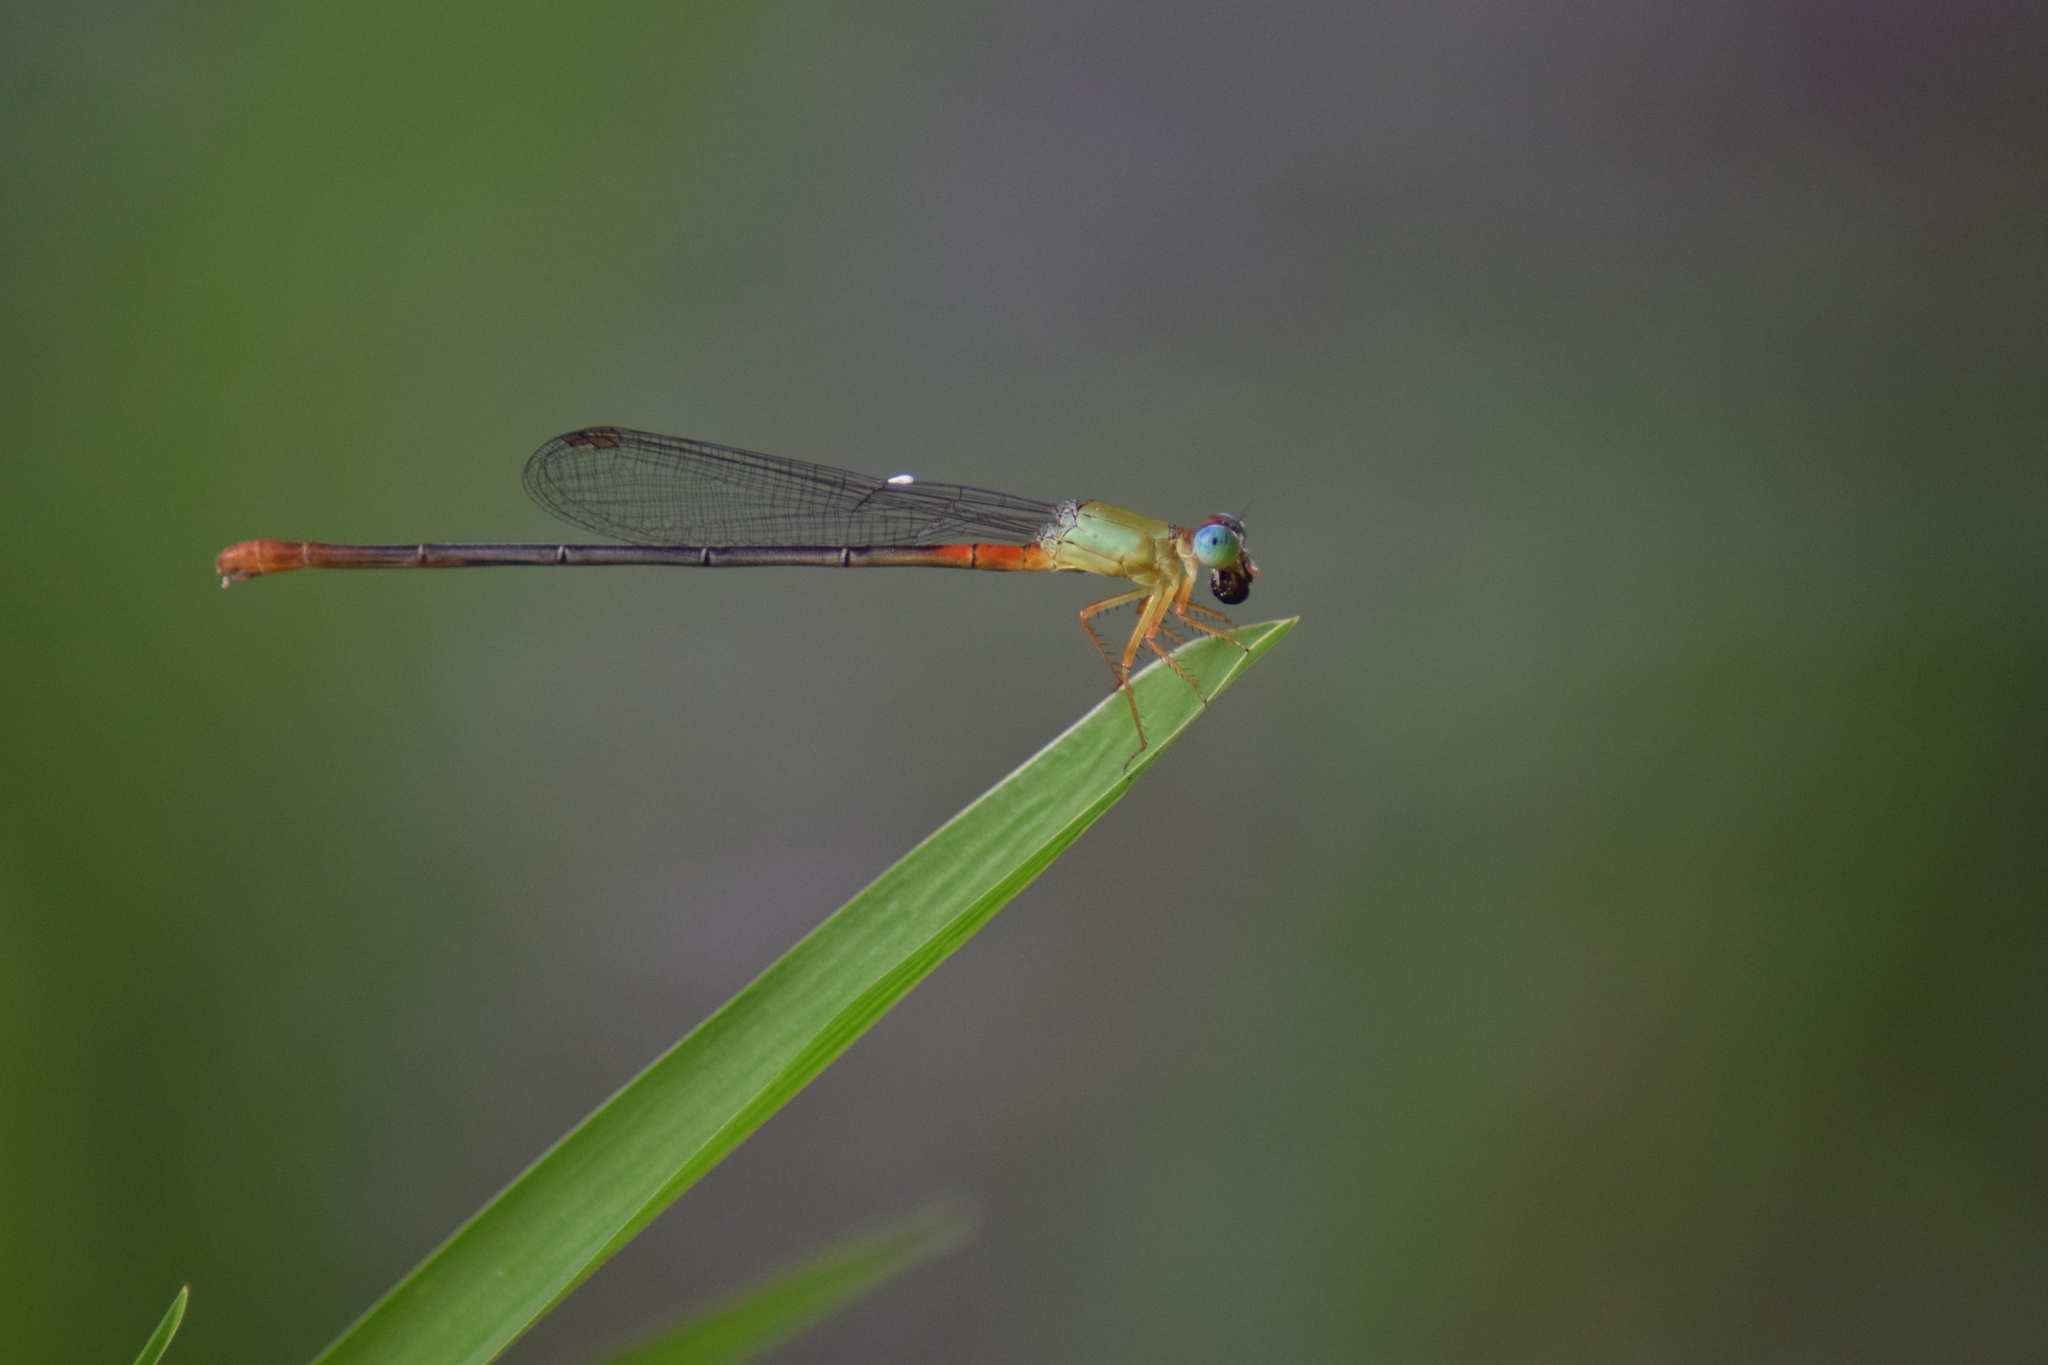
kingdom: Animalia
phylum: Arthropoda
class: Insecta
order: Odonata
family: Coenagrionidae
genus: Ceriagrion
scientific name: Ceriagrion cerinorubellum
